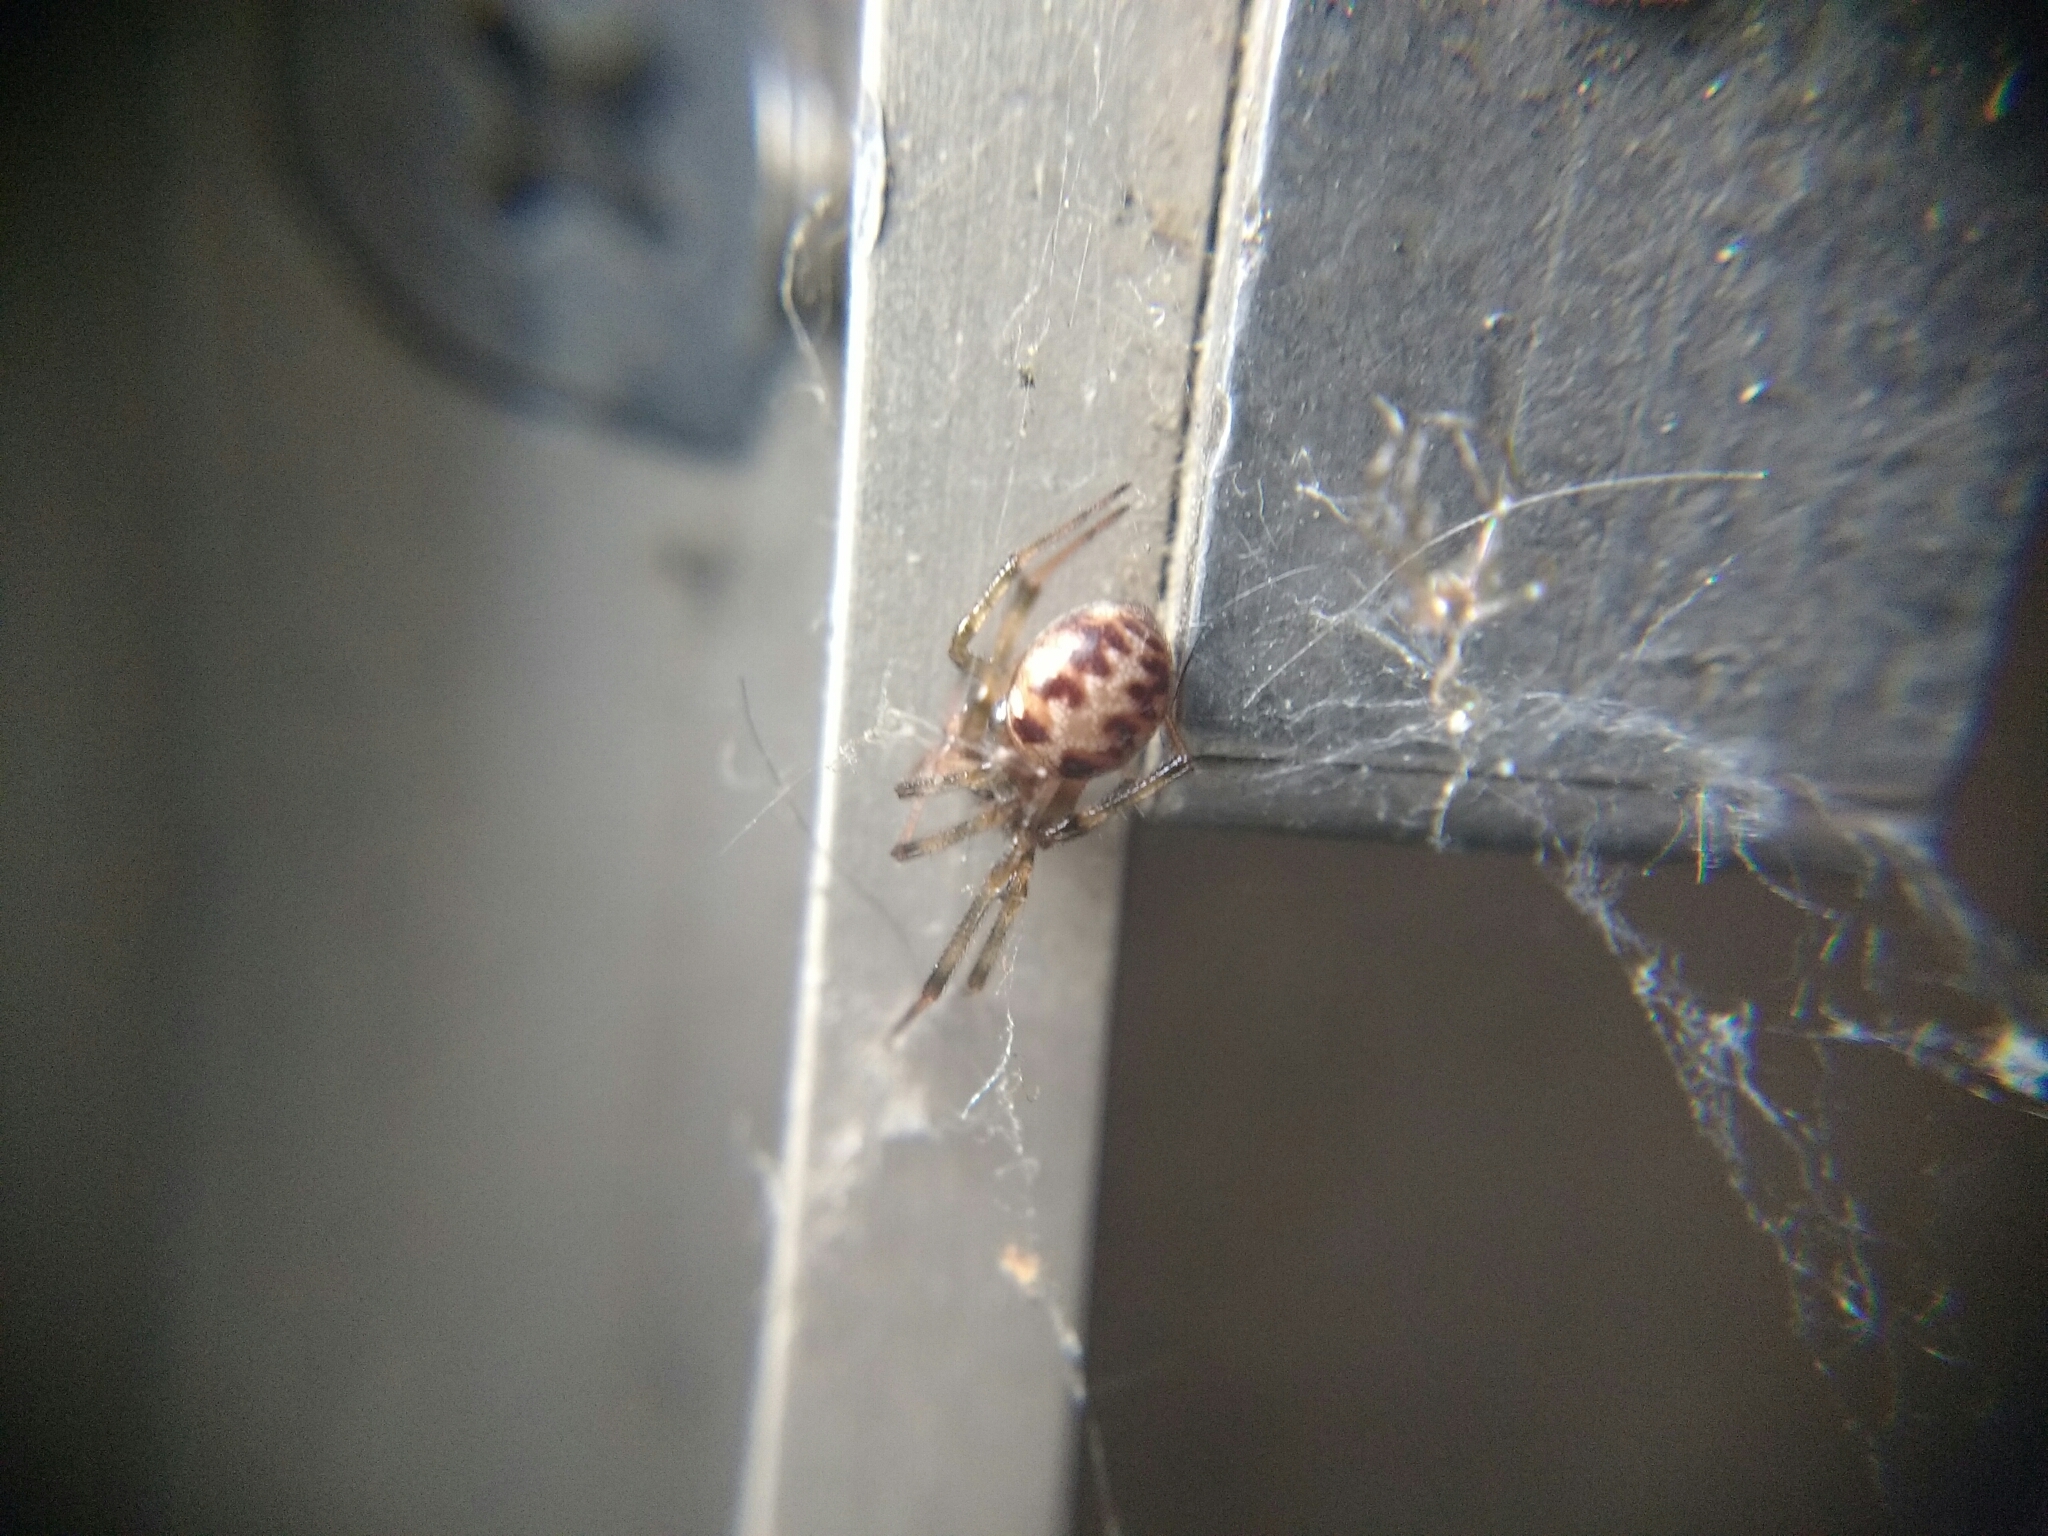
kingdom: Animalia
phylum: Arthropoda
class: Arachnida
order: Araneae
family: Theridiidae
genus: Steatoda
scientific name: Steatoda triangulosa
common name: Triangulate bud spider
